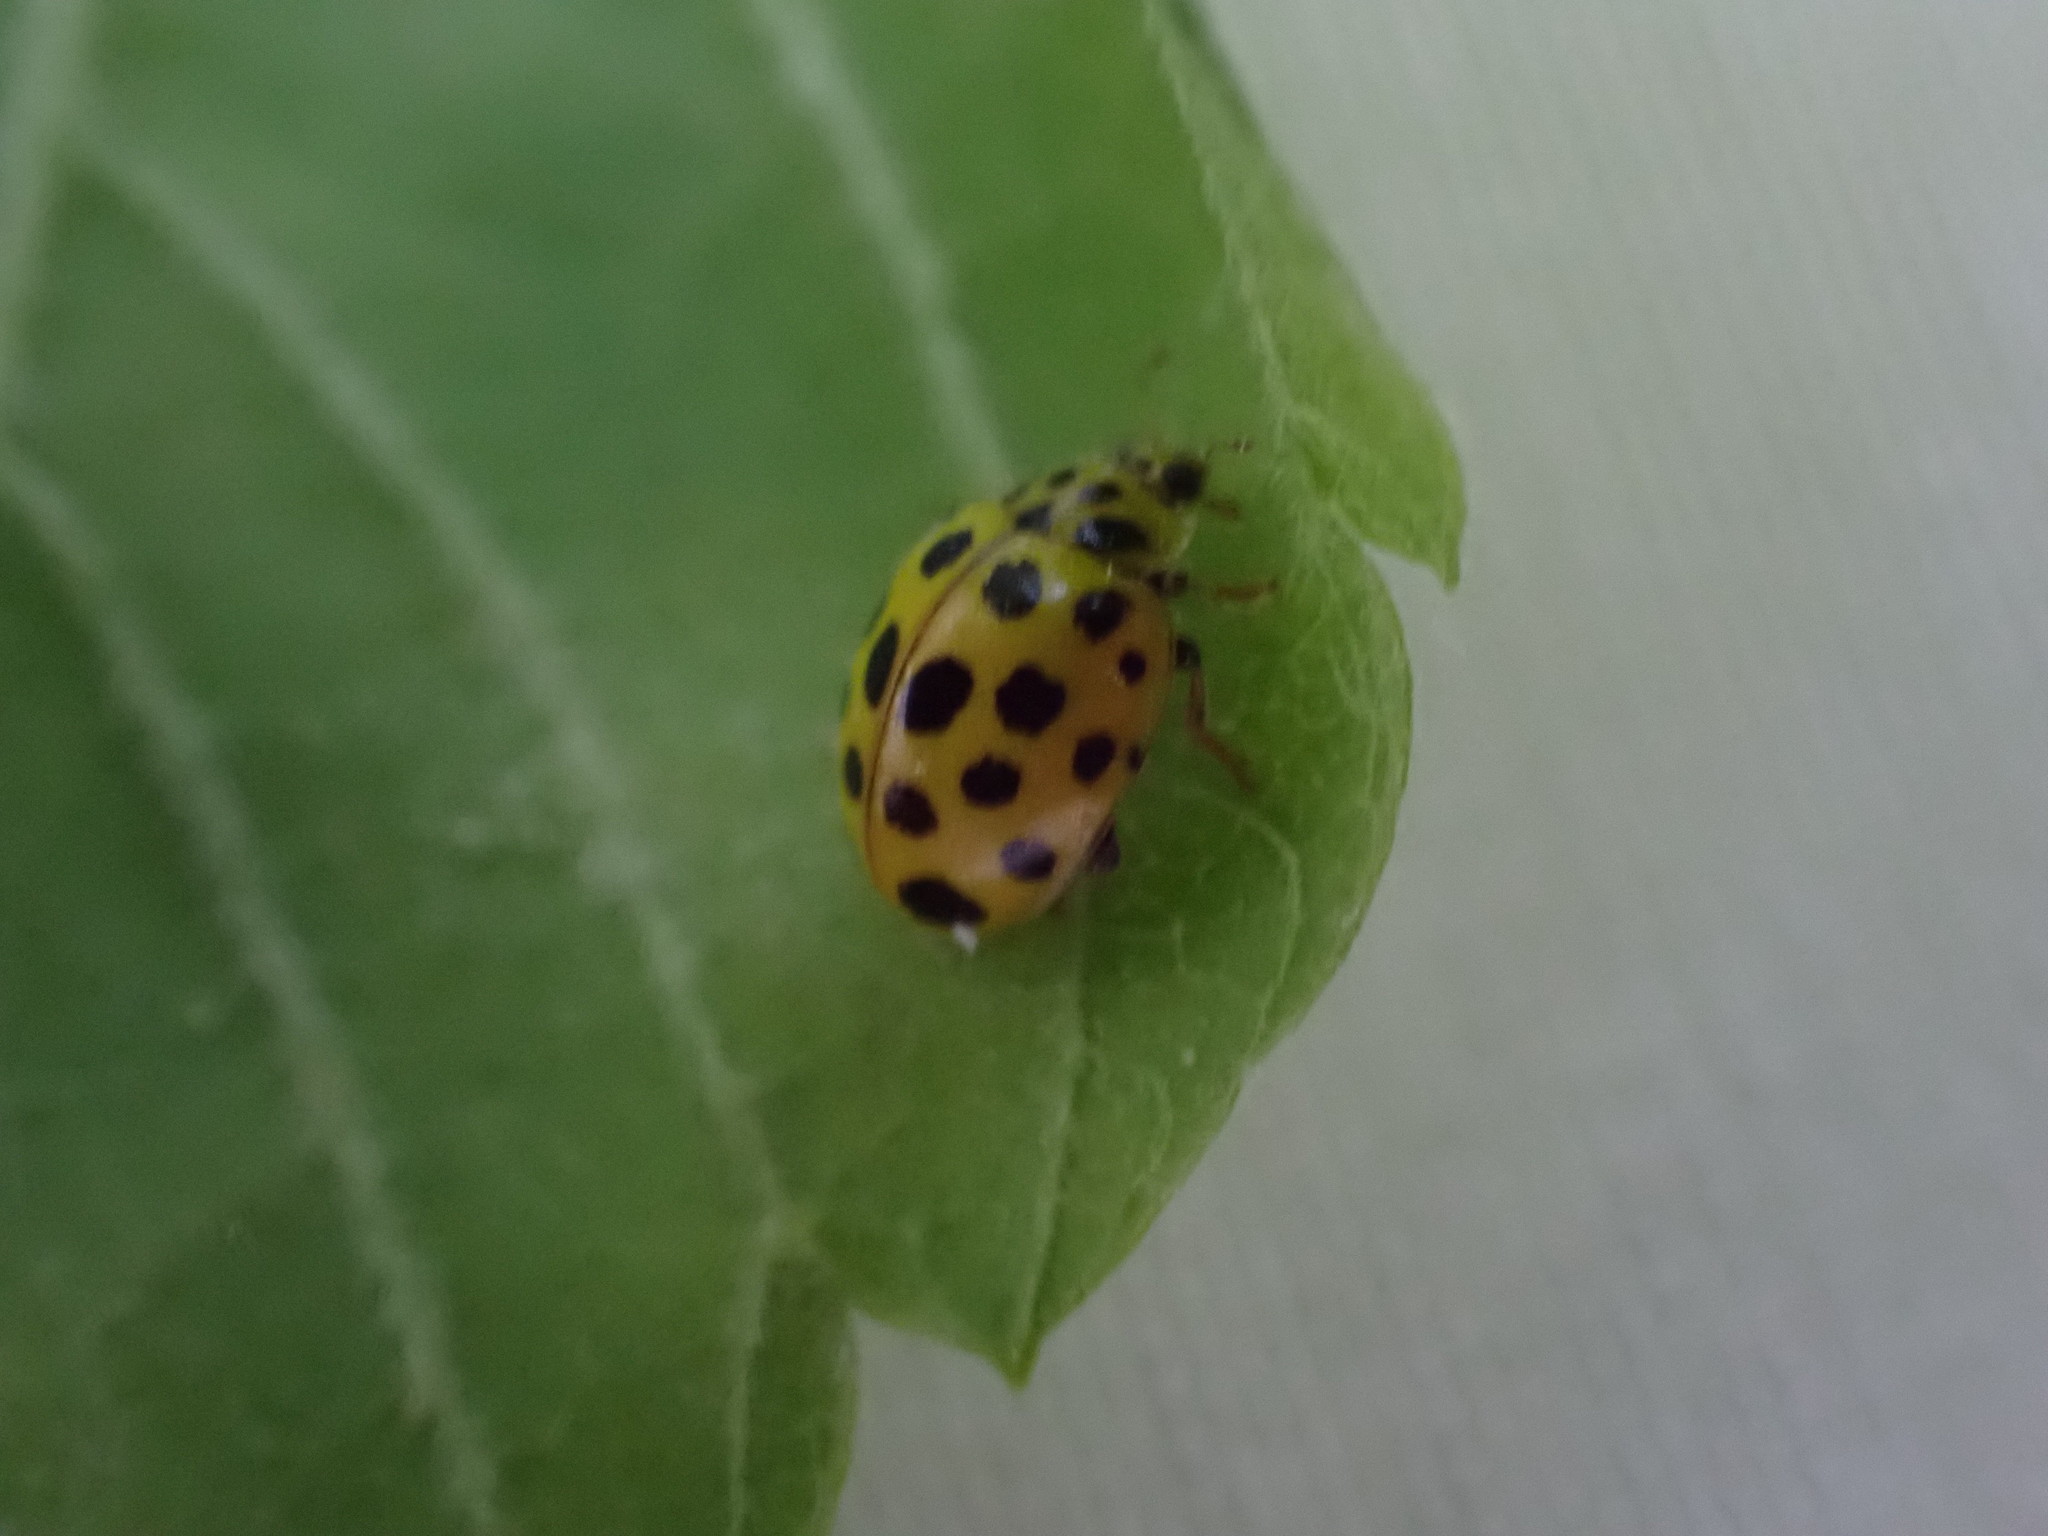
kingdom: Animalia
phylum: Arthropoda
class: Insecta
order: Coleoptera
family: Coccinellidae
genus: Psyllobora
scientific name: Psyllobora vigintiduopunctata
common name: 22-spot ladybird
